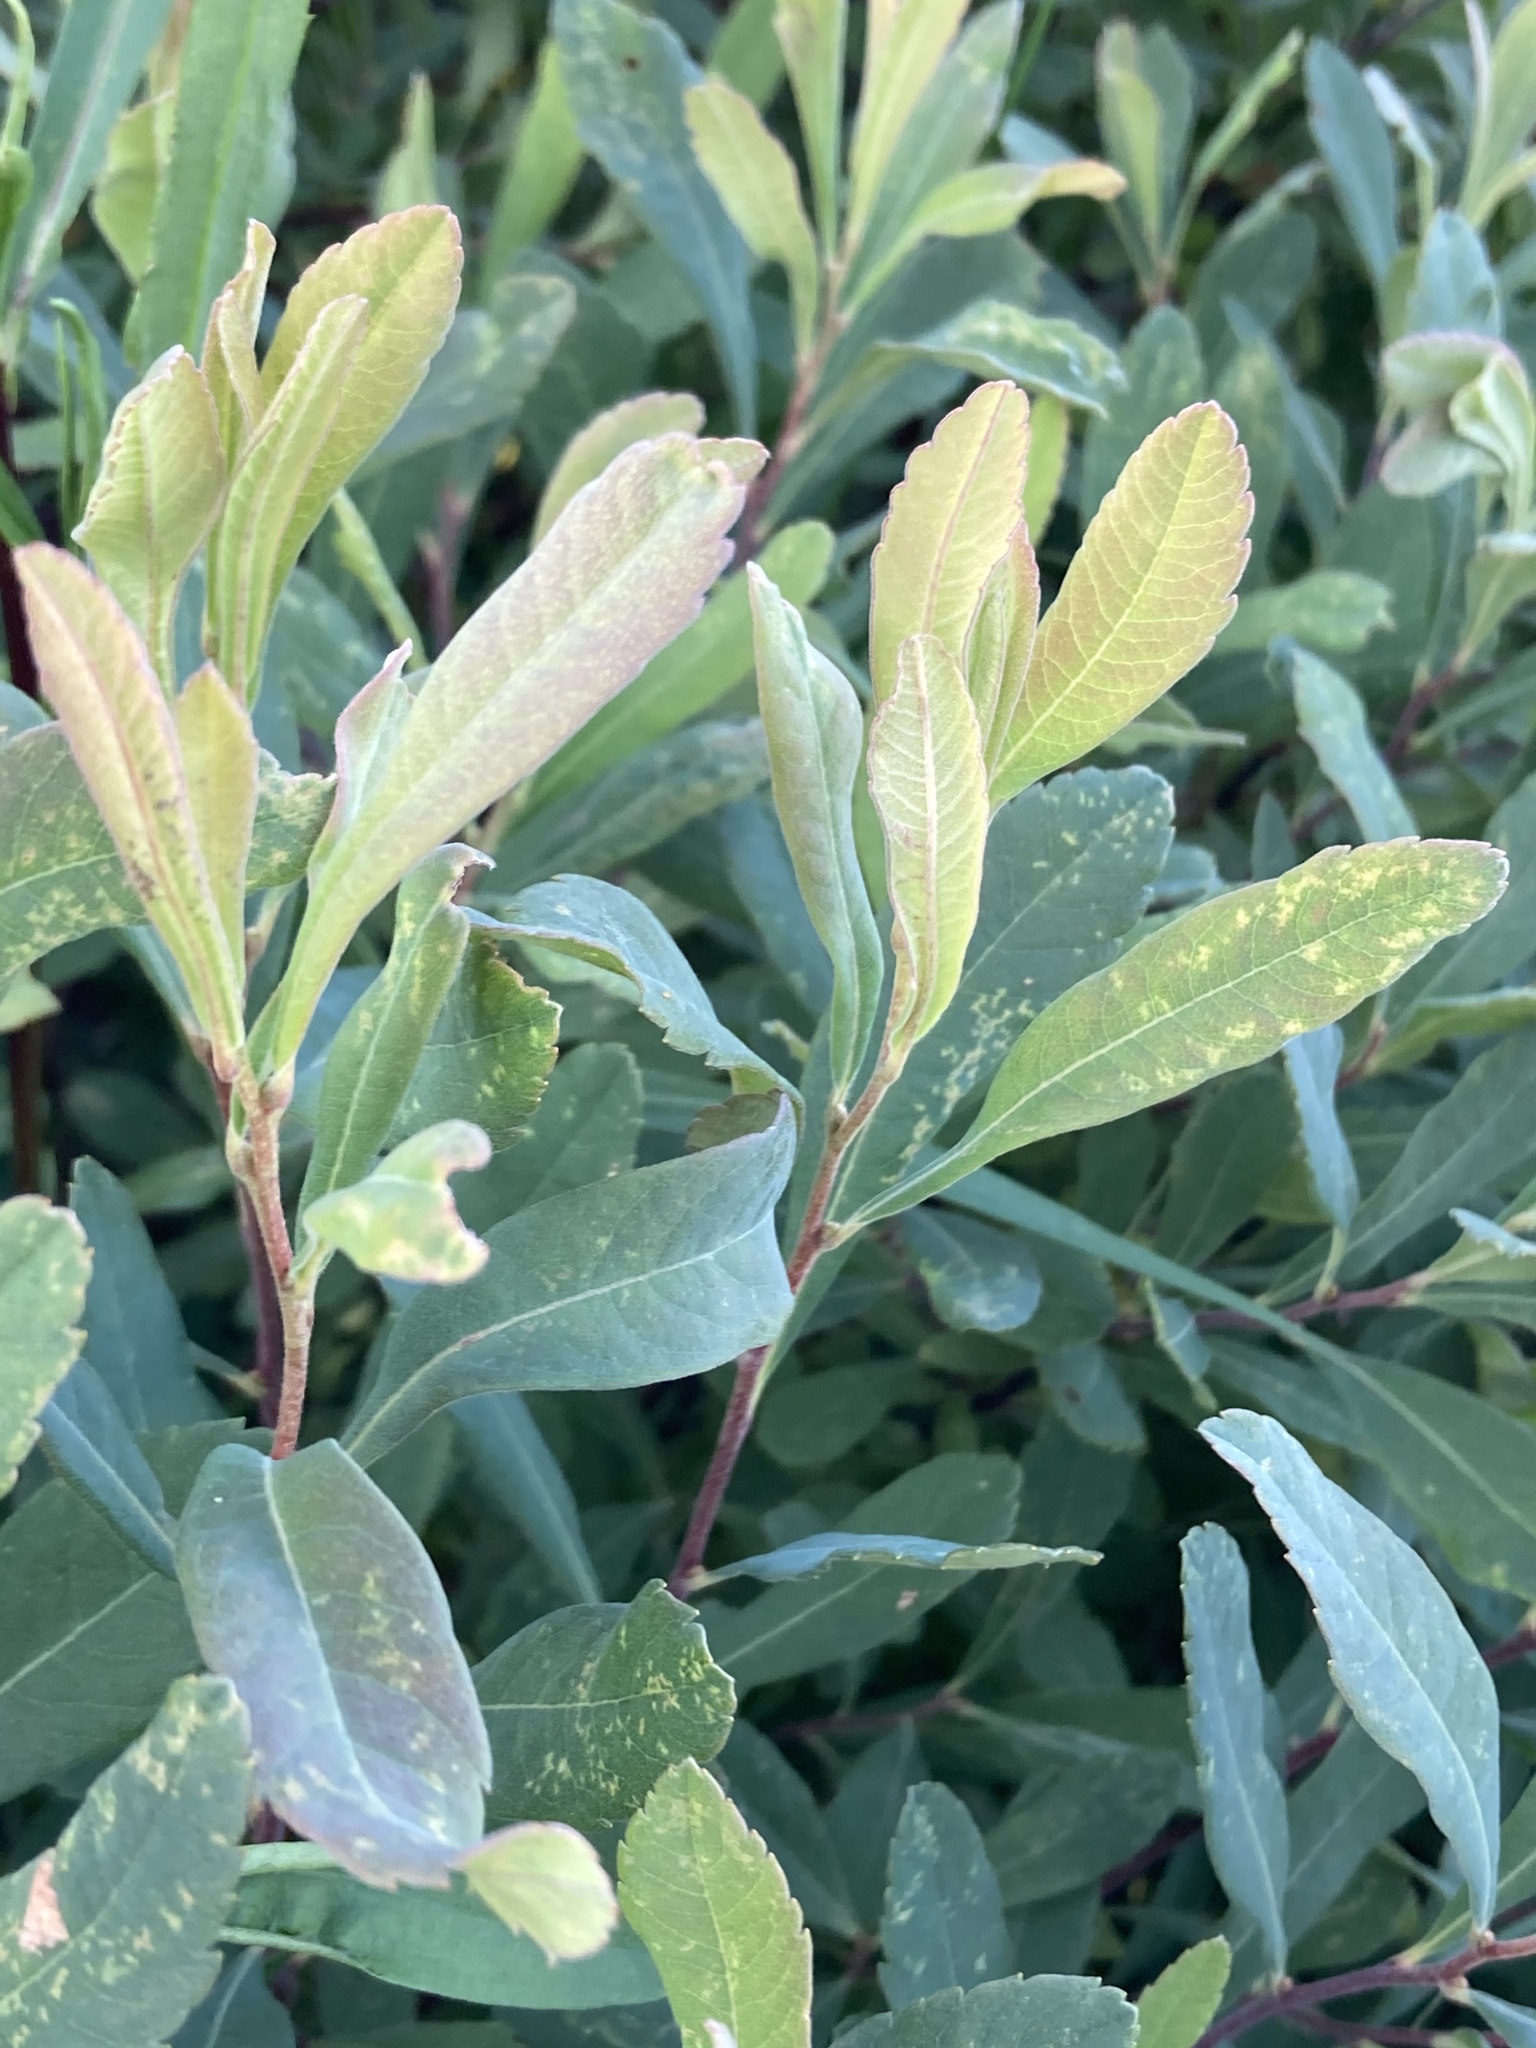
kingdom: Plantae
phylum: Tracheophyta
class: Magnoliopsida
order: Fagales
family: Myricaceae
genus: Myrica
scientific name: Myrica gale
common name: Sweet gale
